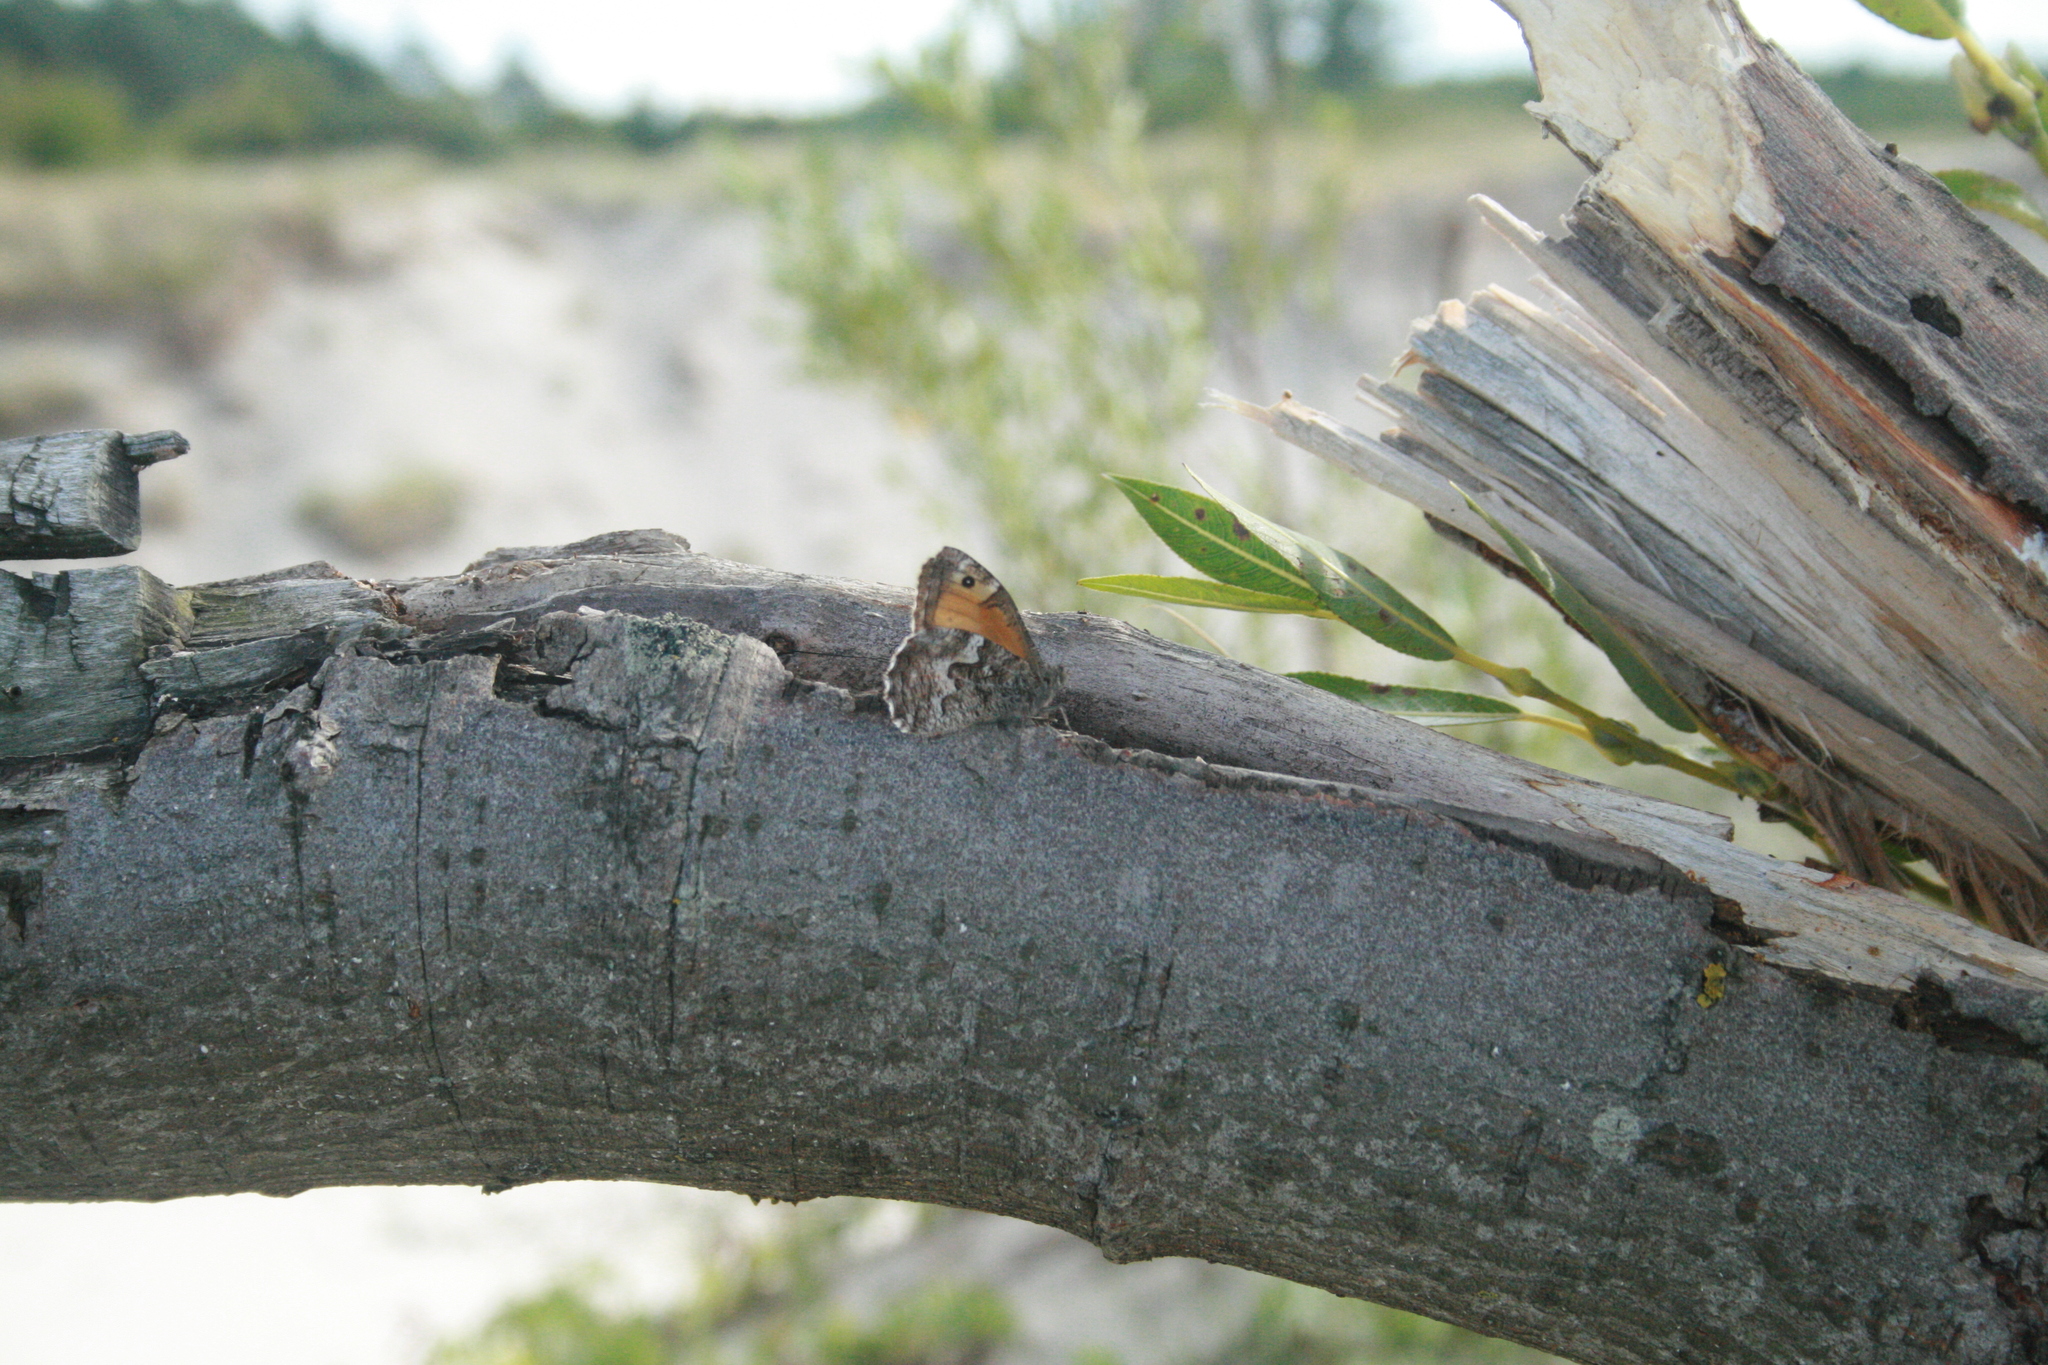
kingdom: Animalia
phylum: Arthropoda
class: Insecta
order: Lepidoptera
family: Nymphalidae
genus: Hipparchia
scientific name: Hipparchia semele
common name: Grayling
